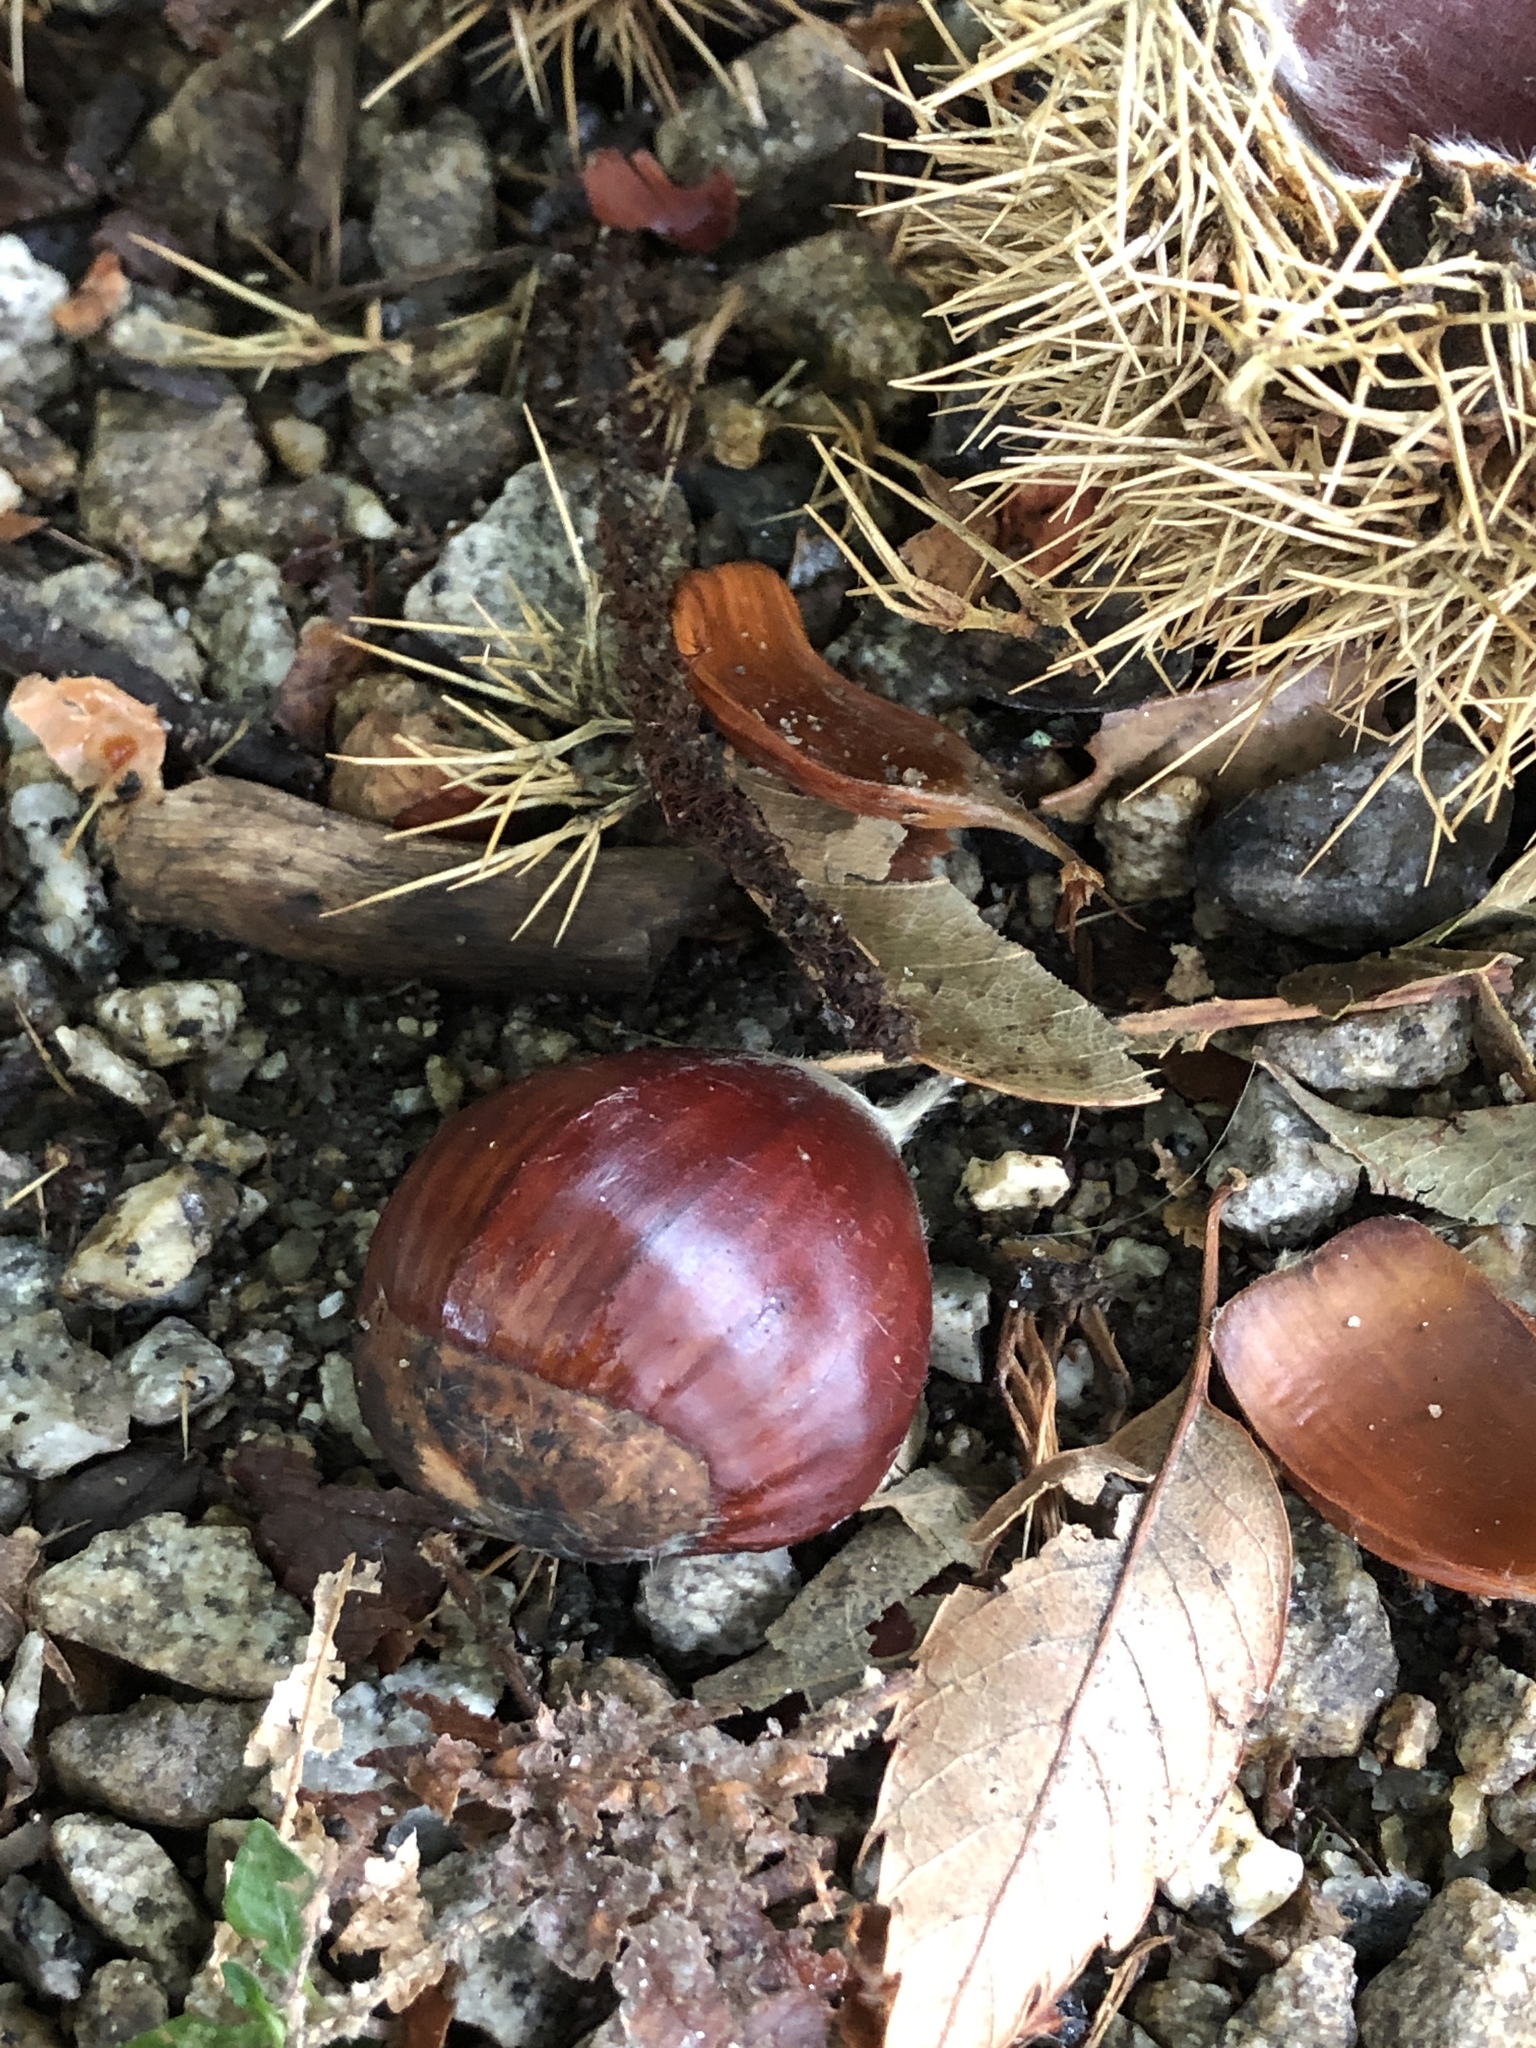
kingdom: Plantae
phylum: Tracheophyta
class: Magnoliopsida
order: Fagales
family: Fagaceae
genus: Castanea
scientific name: Castanea sativa
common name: Sweet chestnut
